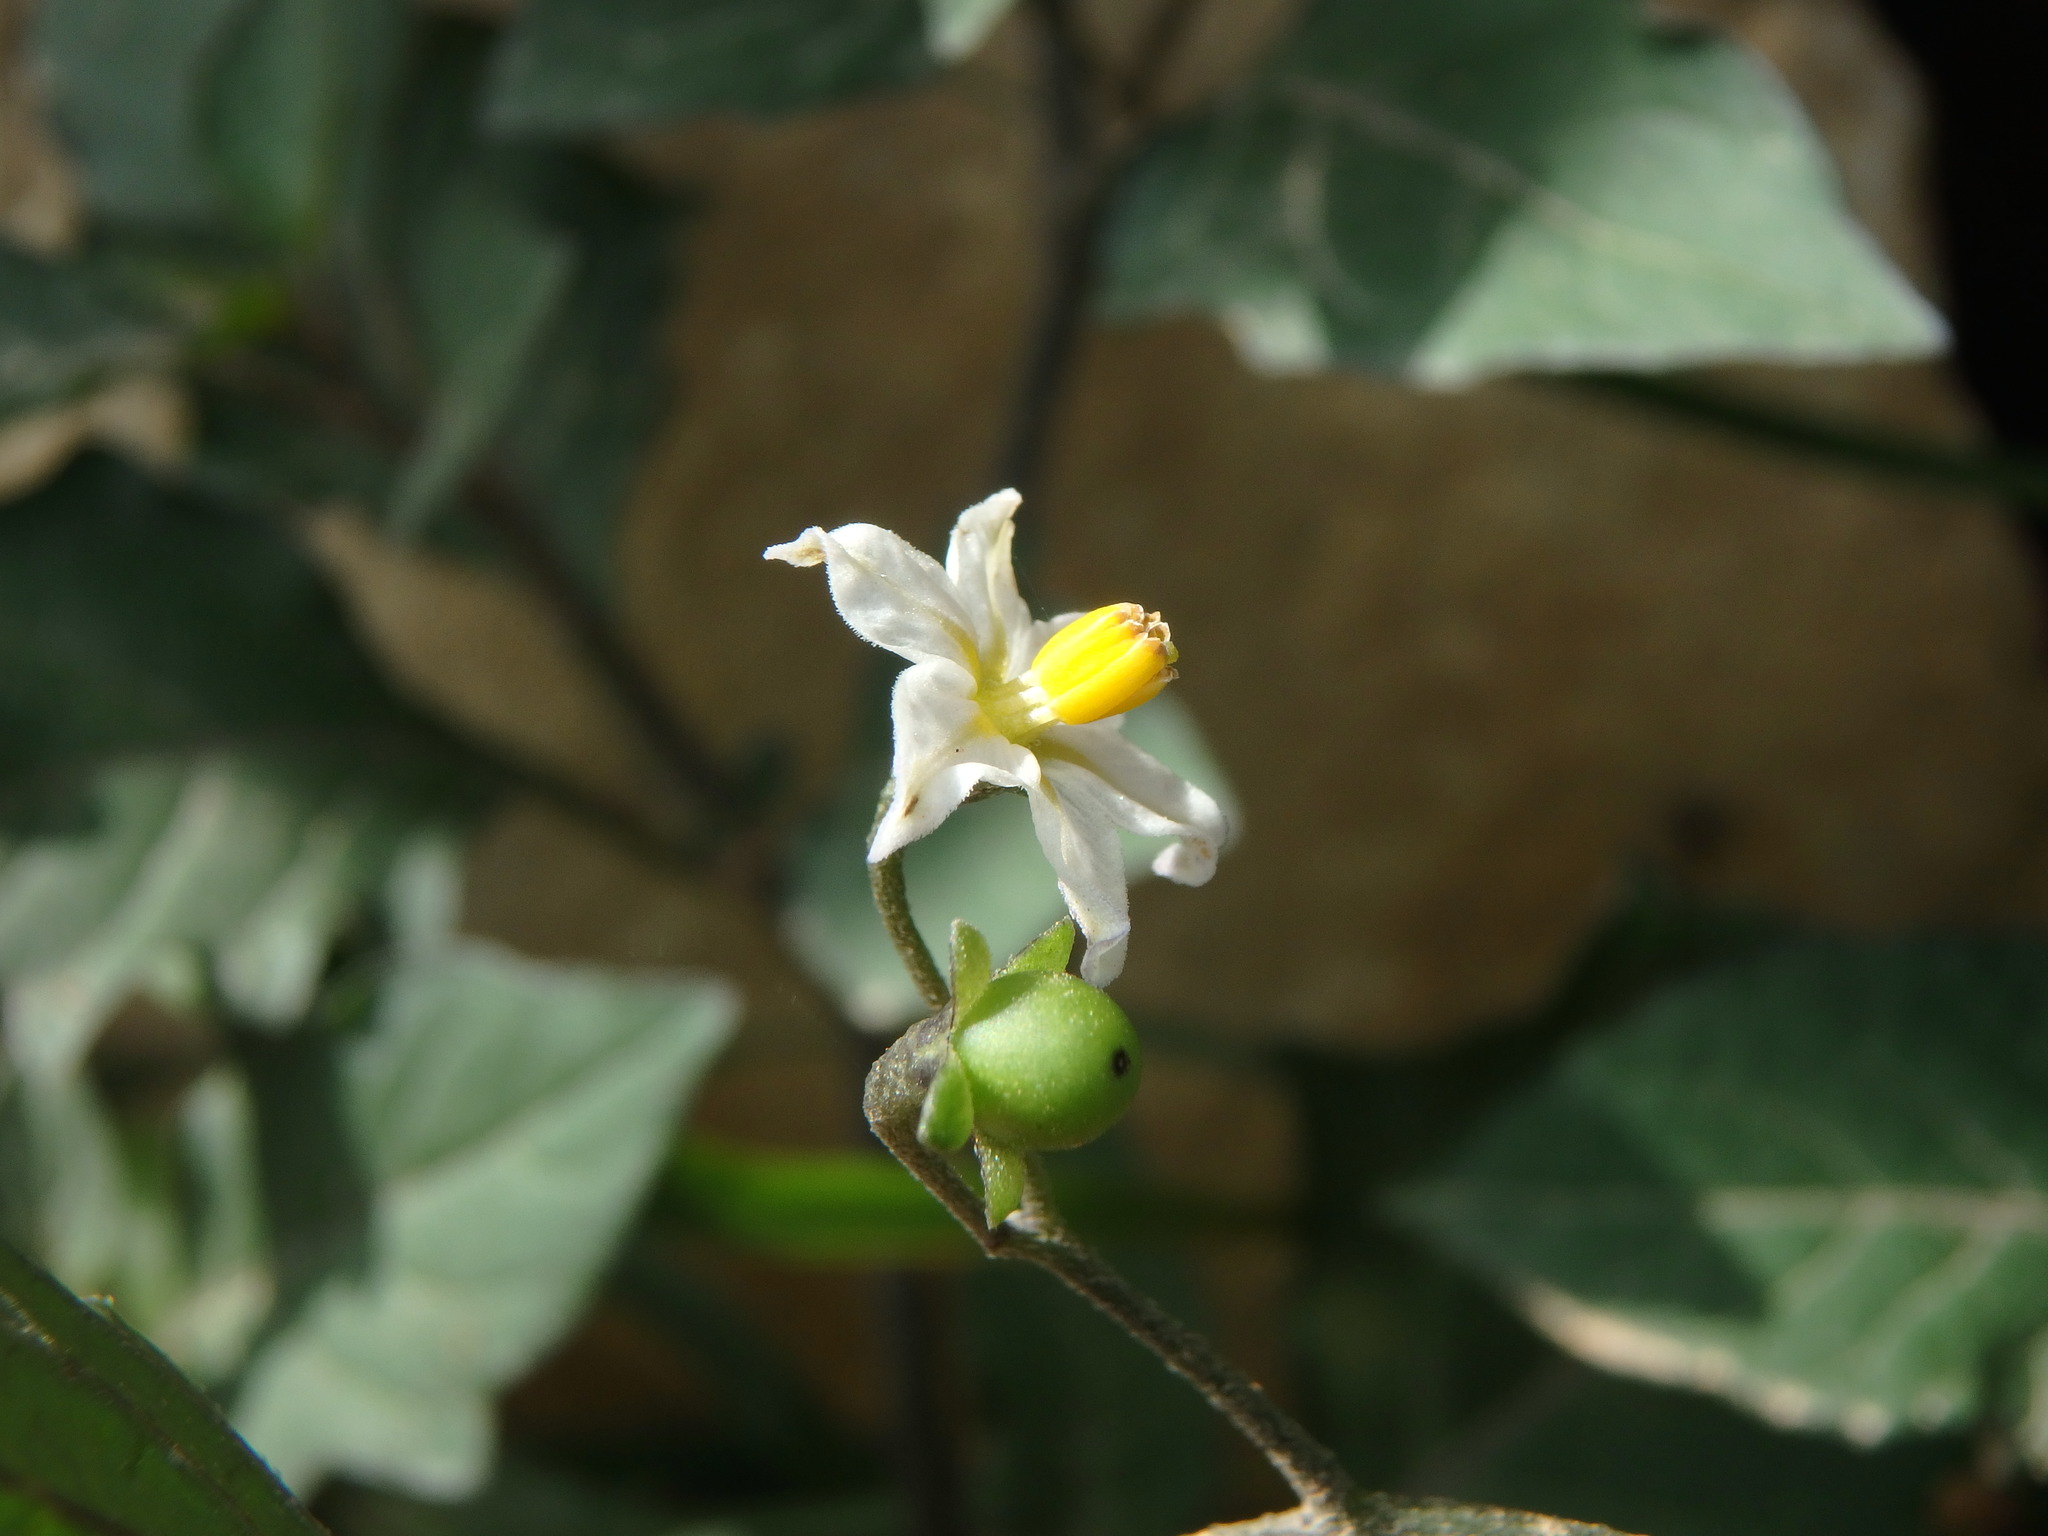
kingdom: Plantae
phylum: Tracheophyta
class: Magnoliopsida
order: Solanales
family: Solanaceae
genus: Solanum
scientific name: Solanum nigrum
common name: Black nightshade
